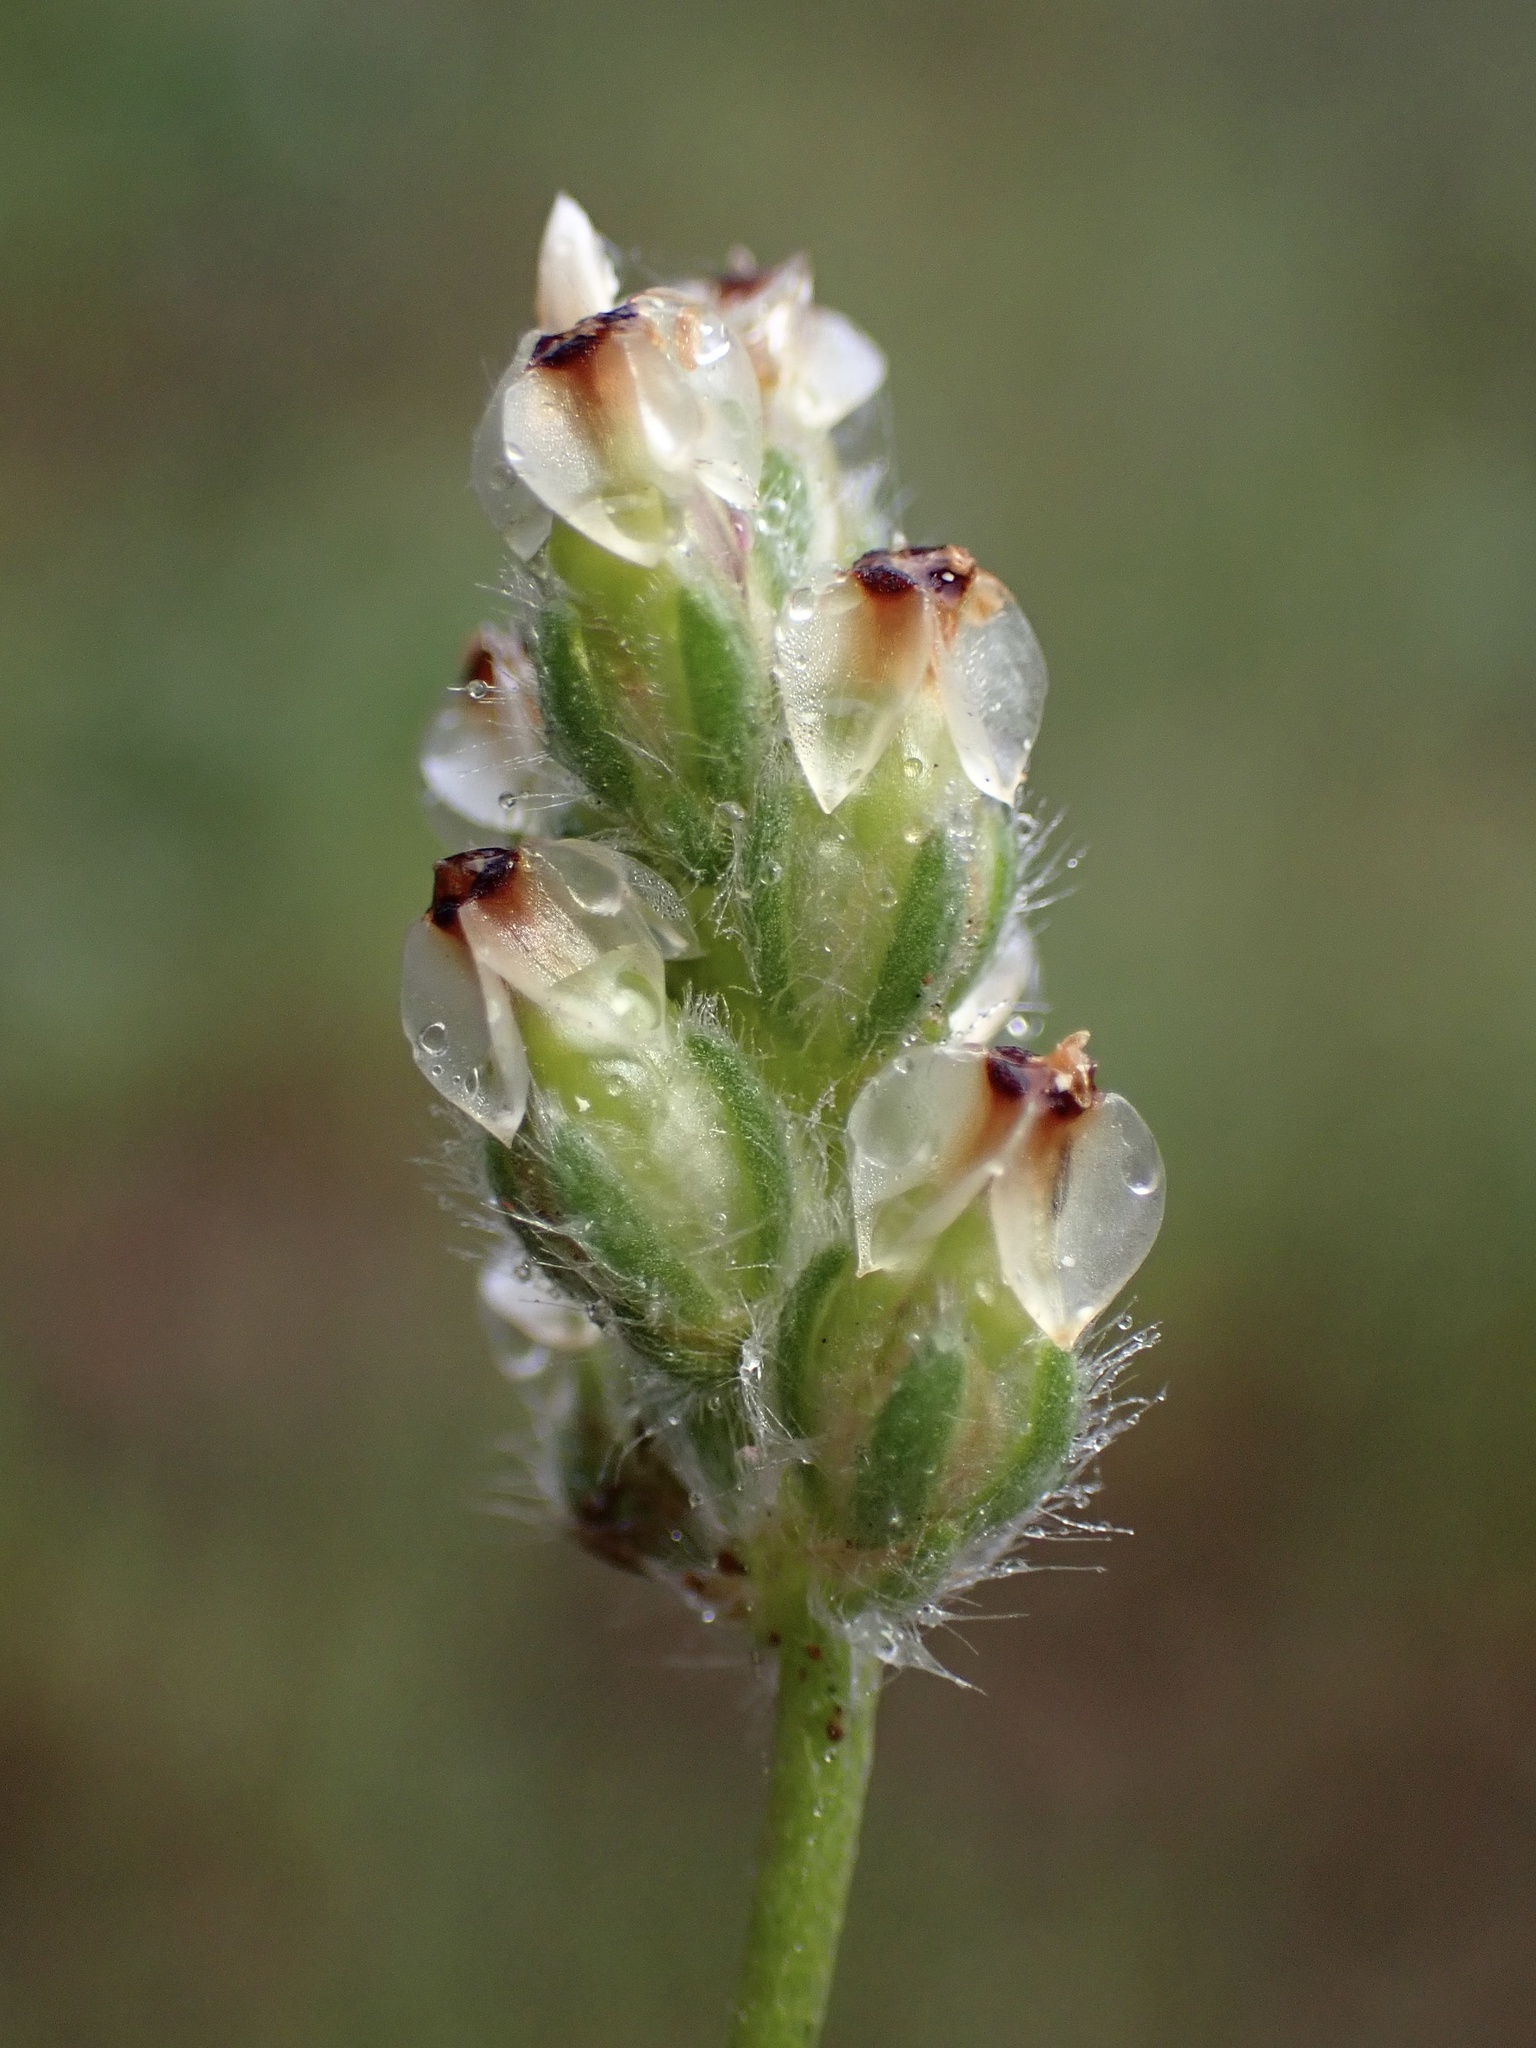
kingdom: Plantae
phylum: Tracheophyta
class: Magnoliopsida
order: Lamiales
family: Plantaginaceae
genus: Plantago
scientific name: Plantago erecta
